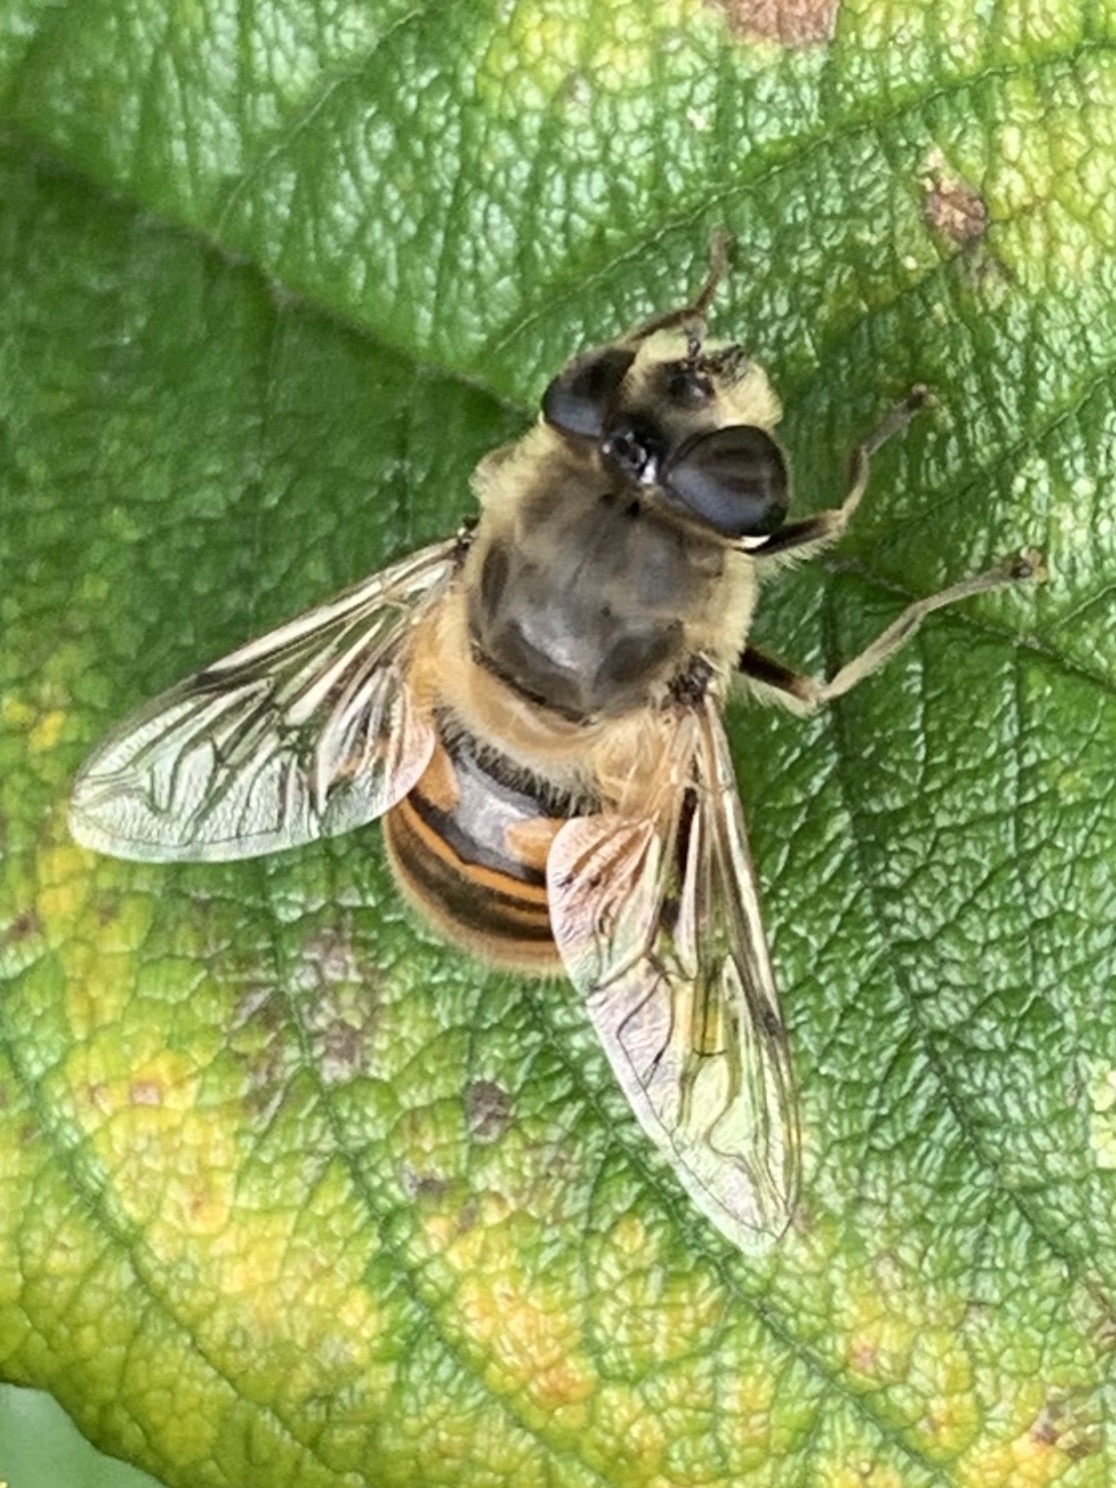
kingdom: Animalia
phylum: Arthropoda
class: Insecta
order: Diptera
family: Syrphidae
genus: Eristalis
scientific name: Eristalis tenax
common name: Drone fly
